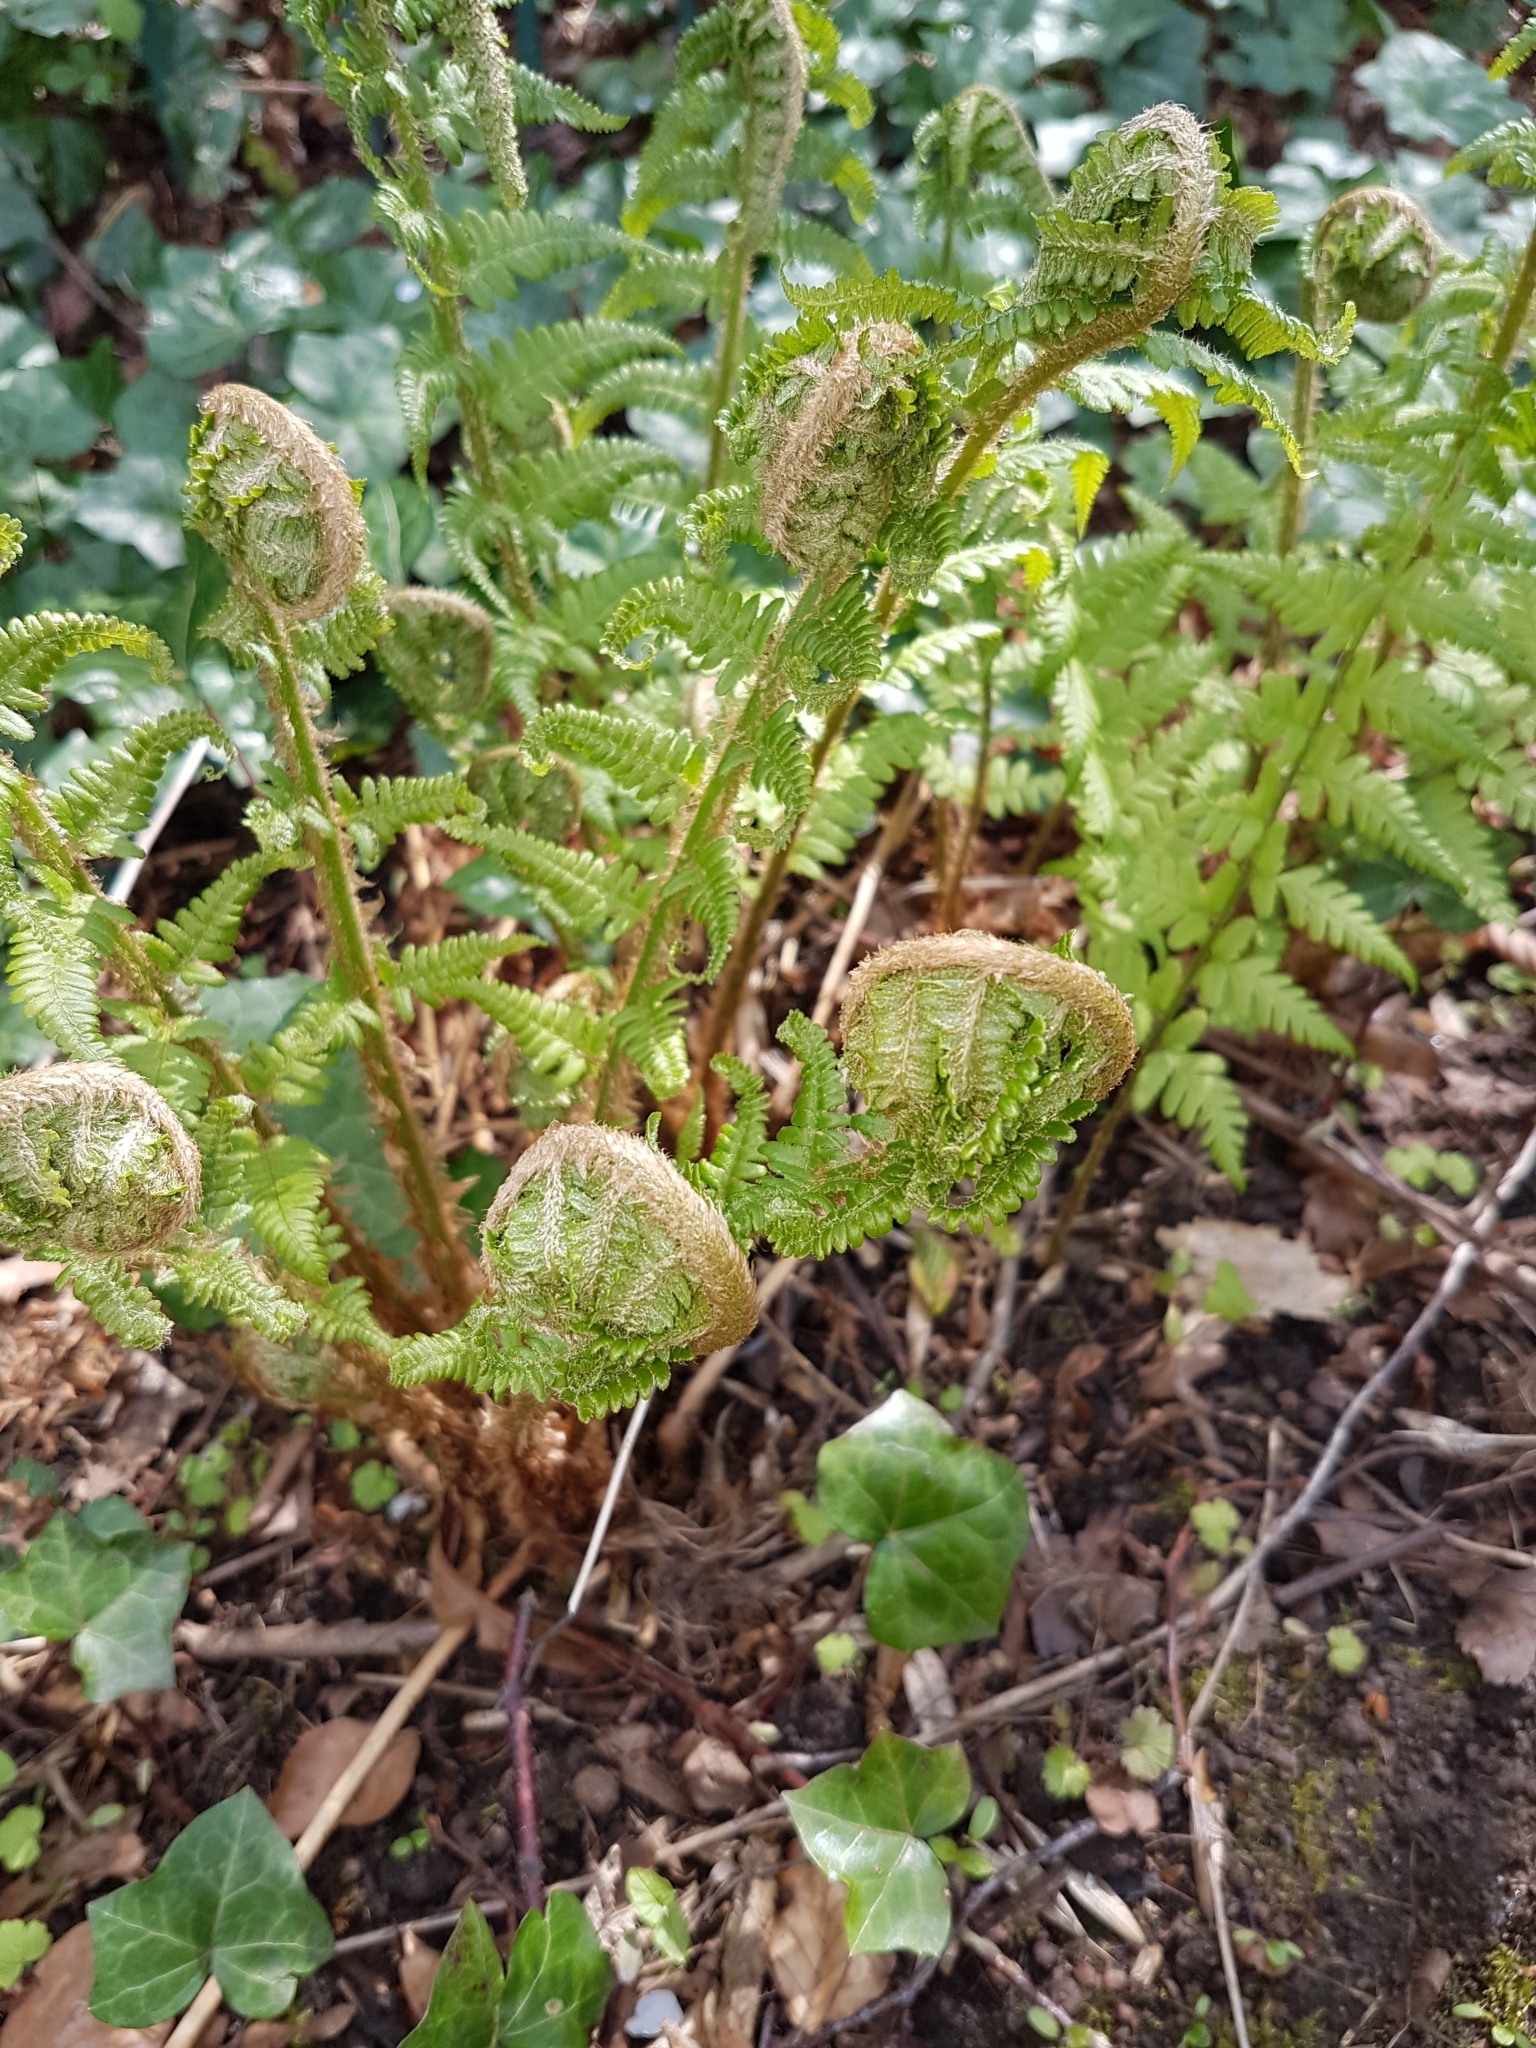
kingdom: Plantae
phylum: Tracheophyta
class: Polypodiopsida
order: Polypodiales
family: Dryopteridaceae
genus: Dryopteris
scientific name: Dryopteris filix-mas
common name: Male fern
